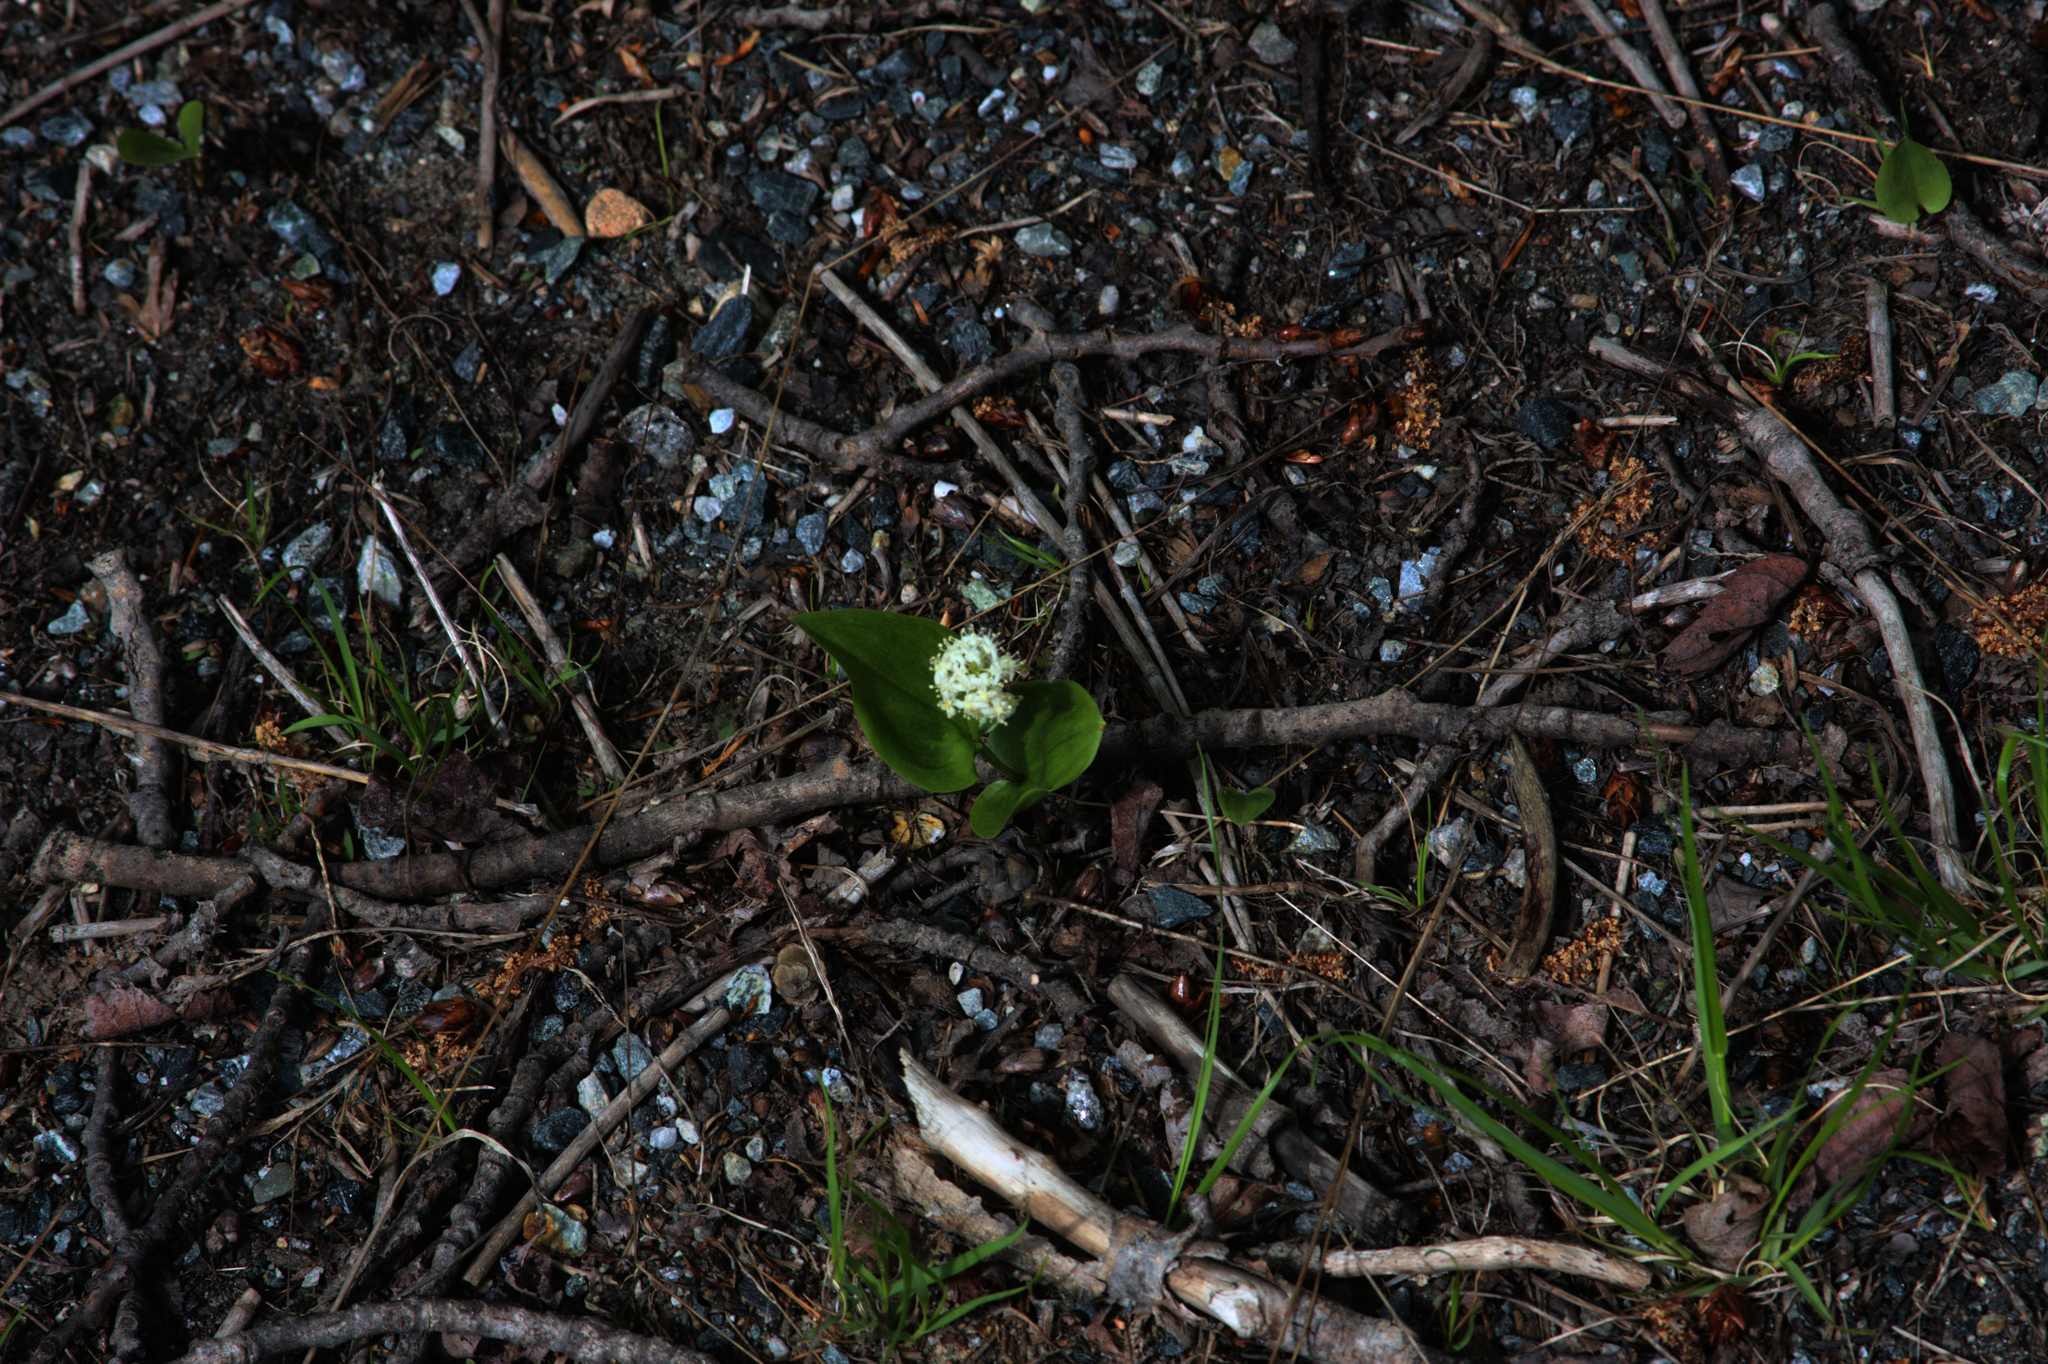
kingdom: Plantae
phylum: Tracheophyta
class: Liliopsida
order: Asparagales
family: Asparagaceae
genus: Maianthemum
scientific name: Maianthemum canadense
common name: False lily-of-the-valley
